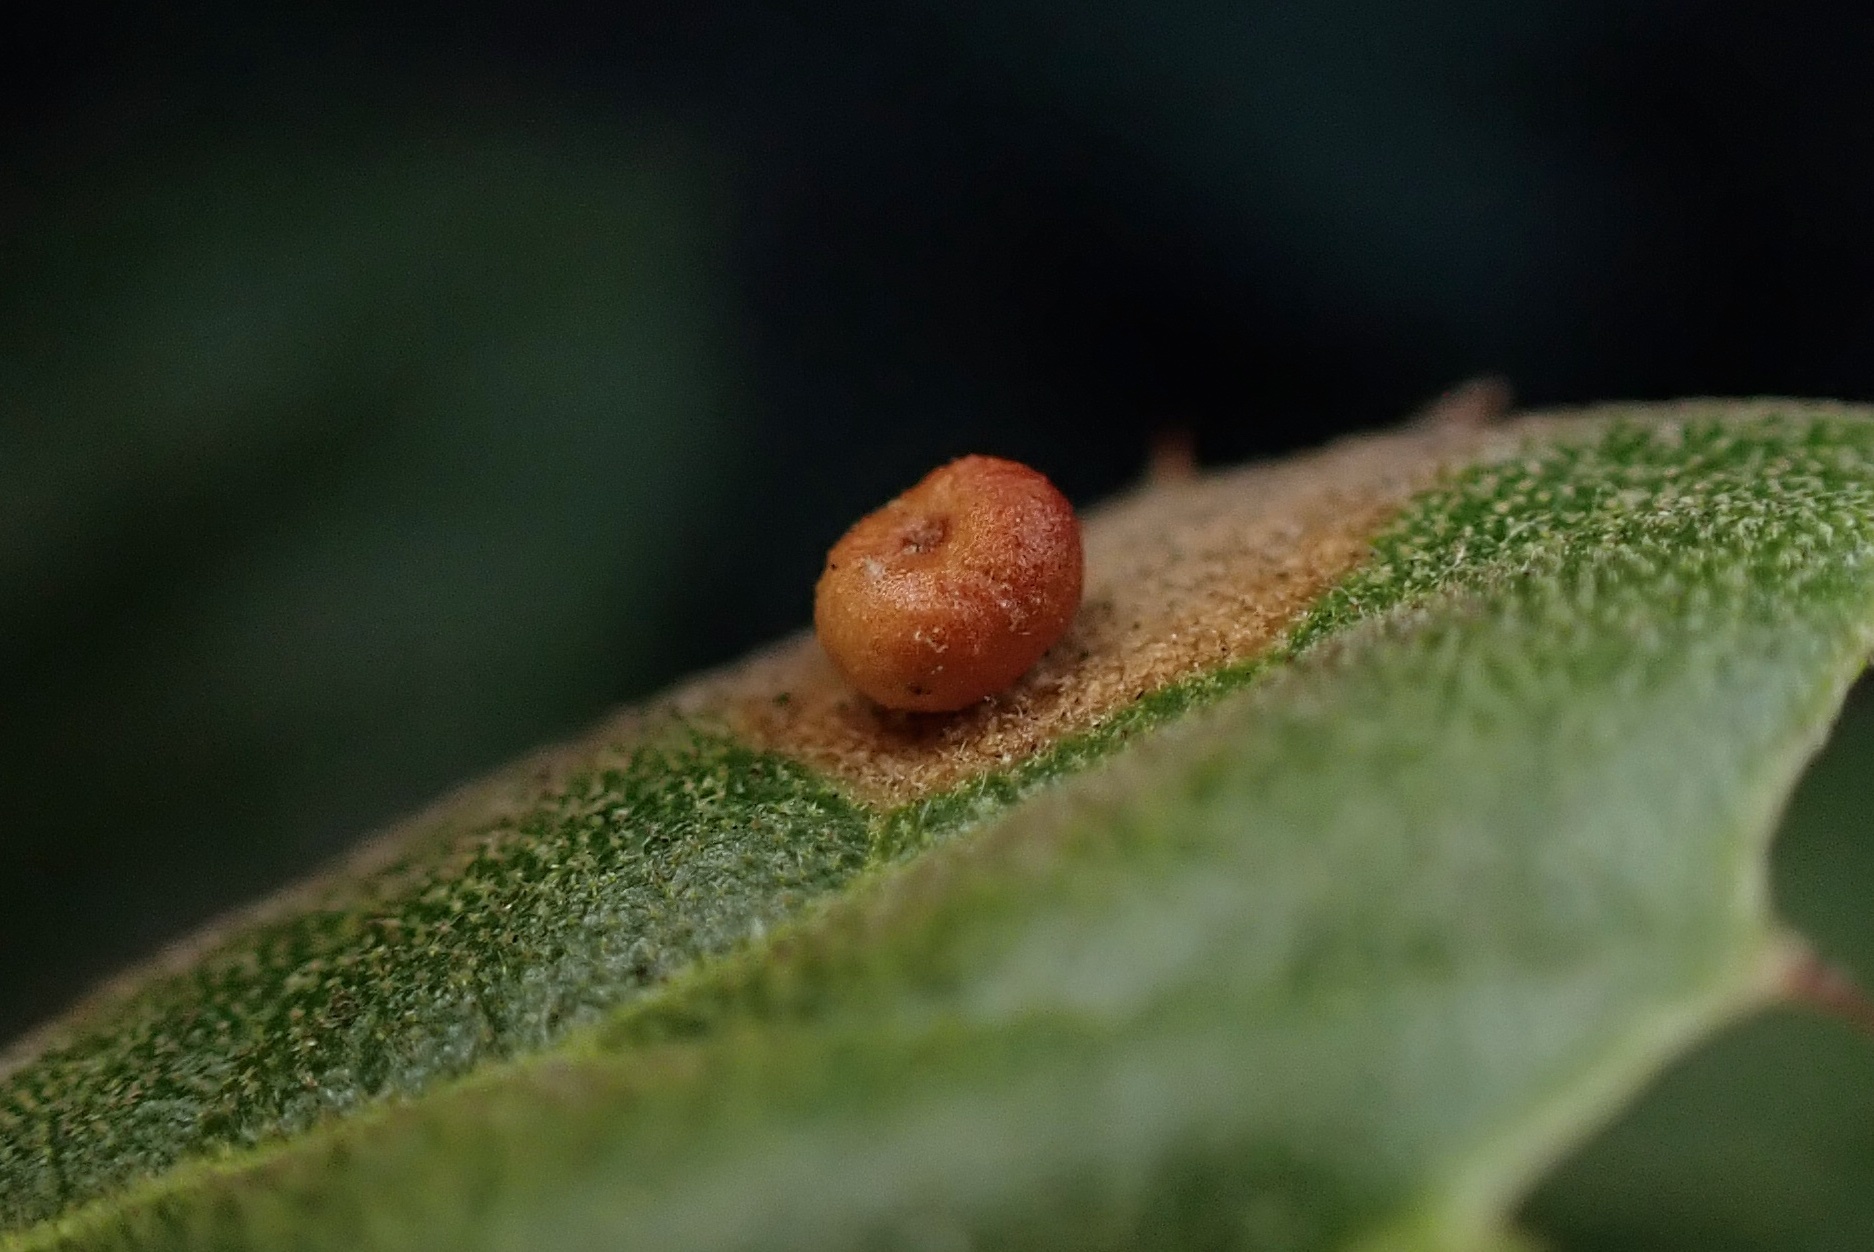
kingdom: Animalia
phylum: Arthropoda
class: Insecta
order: Hymenoptera
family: Cynipidae
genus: Dryocosmus
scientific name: Dryocosmus
